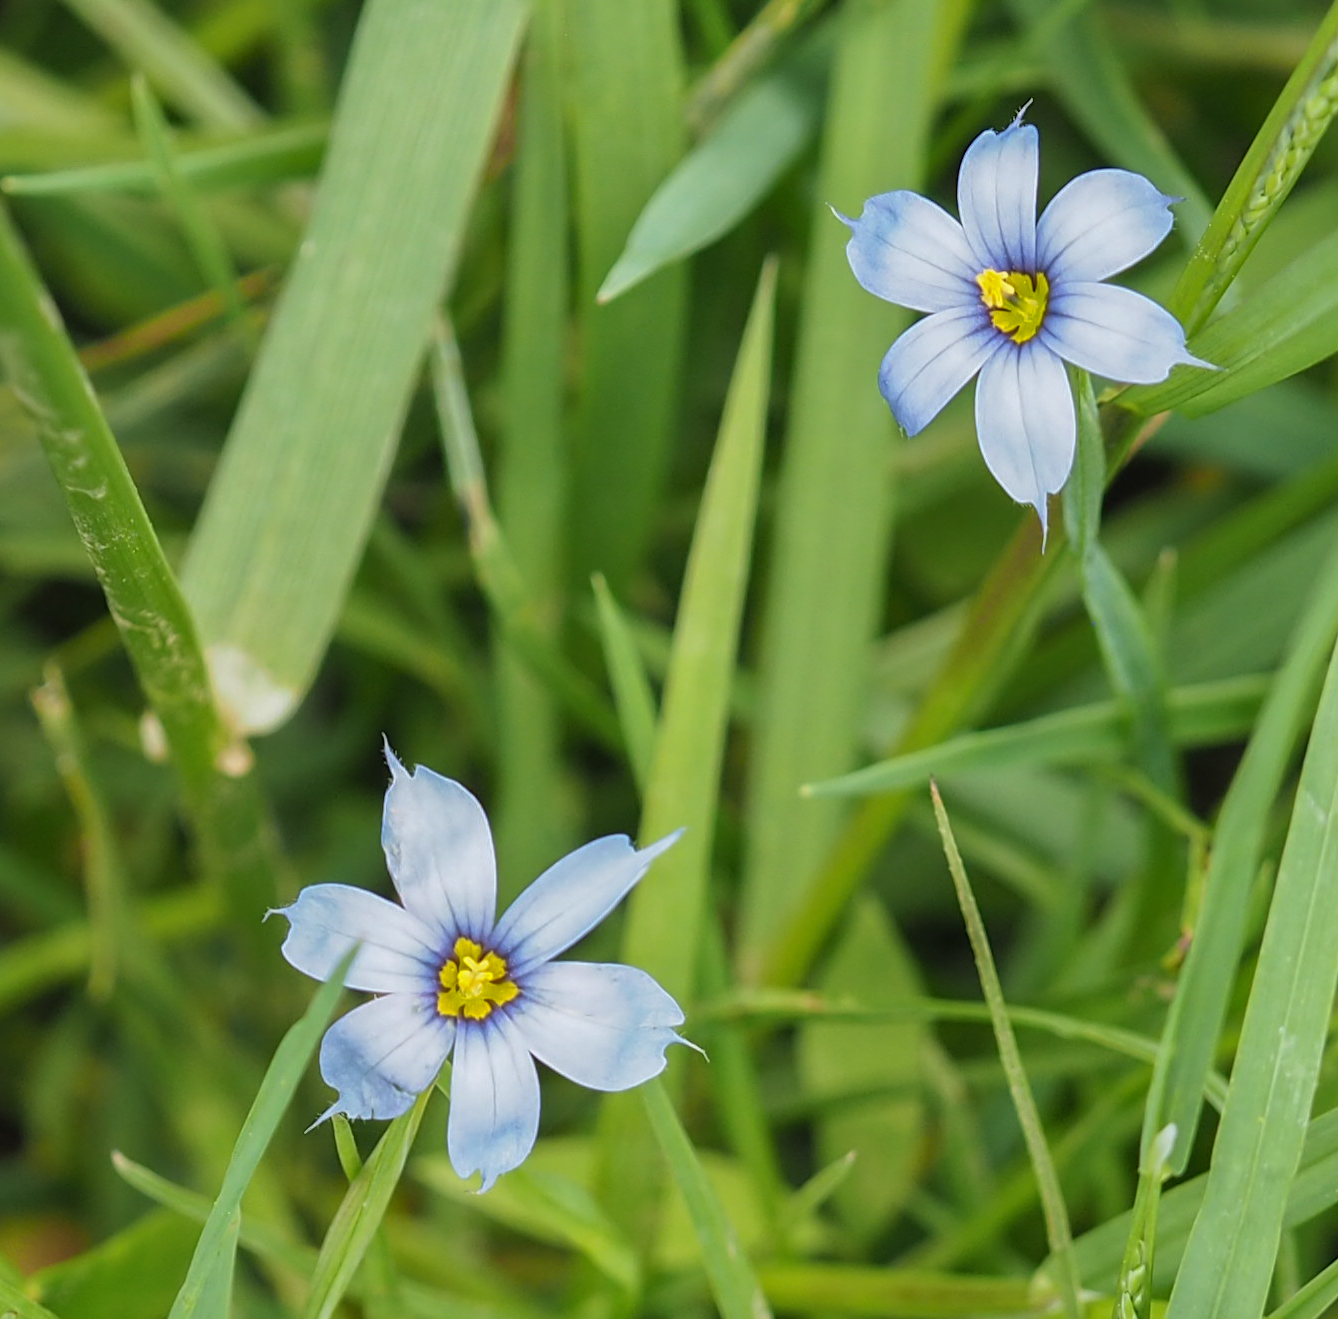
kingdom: Plantae
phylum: Tracheophyta
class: Liliopsida
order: Asparagales
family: Iridaceae
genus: Sisyrinchium
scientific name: Sisyrinchium angustifolium
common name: Narrow-leaf blue-eyed-grass
